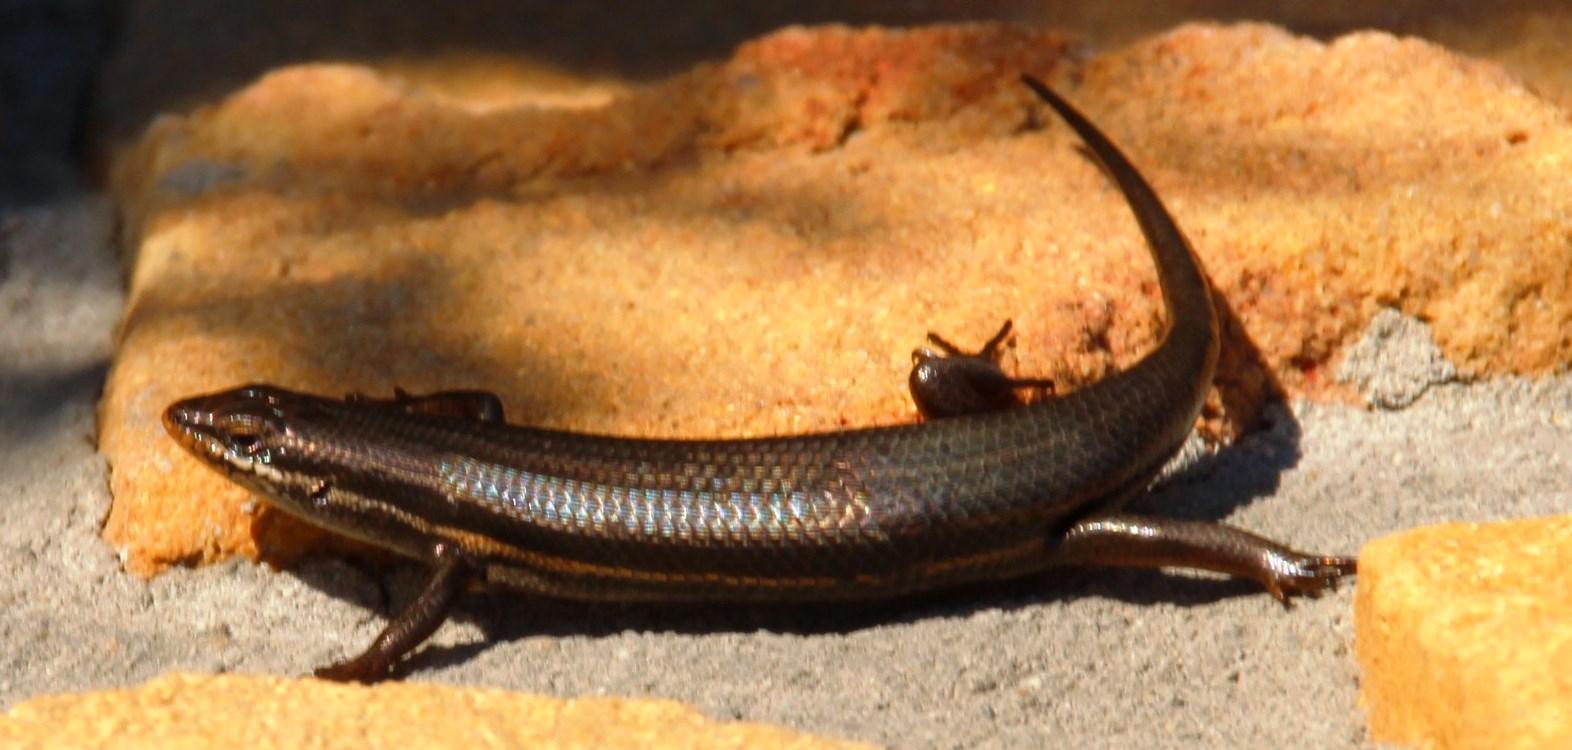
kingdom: Animalia
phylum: Chordata
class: Squamata
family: Scincidae
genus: Trachylepis
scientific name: Trachylepis homalocephala
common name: Red-sided skink
